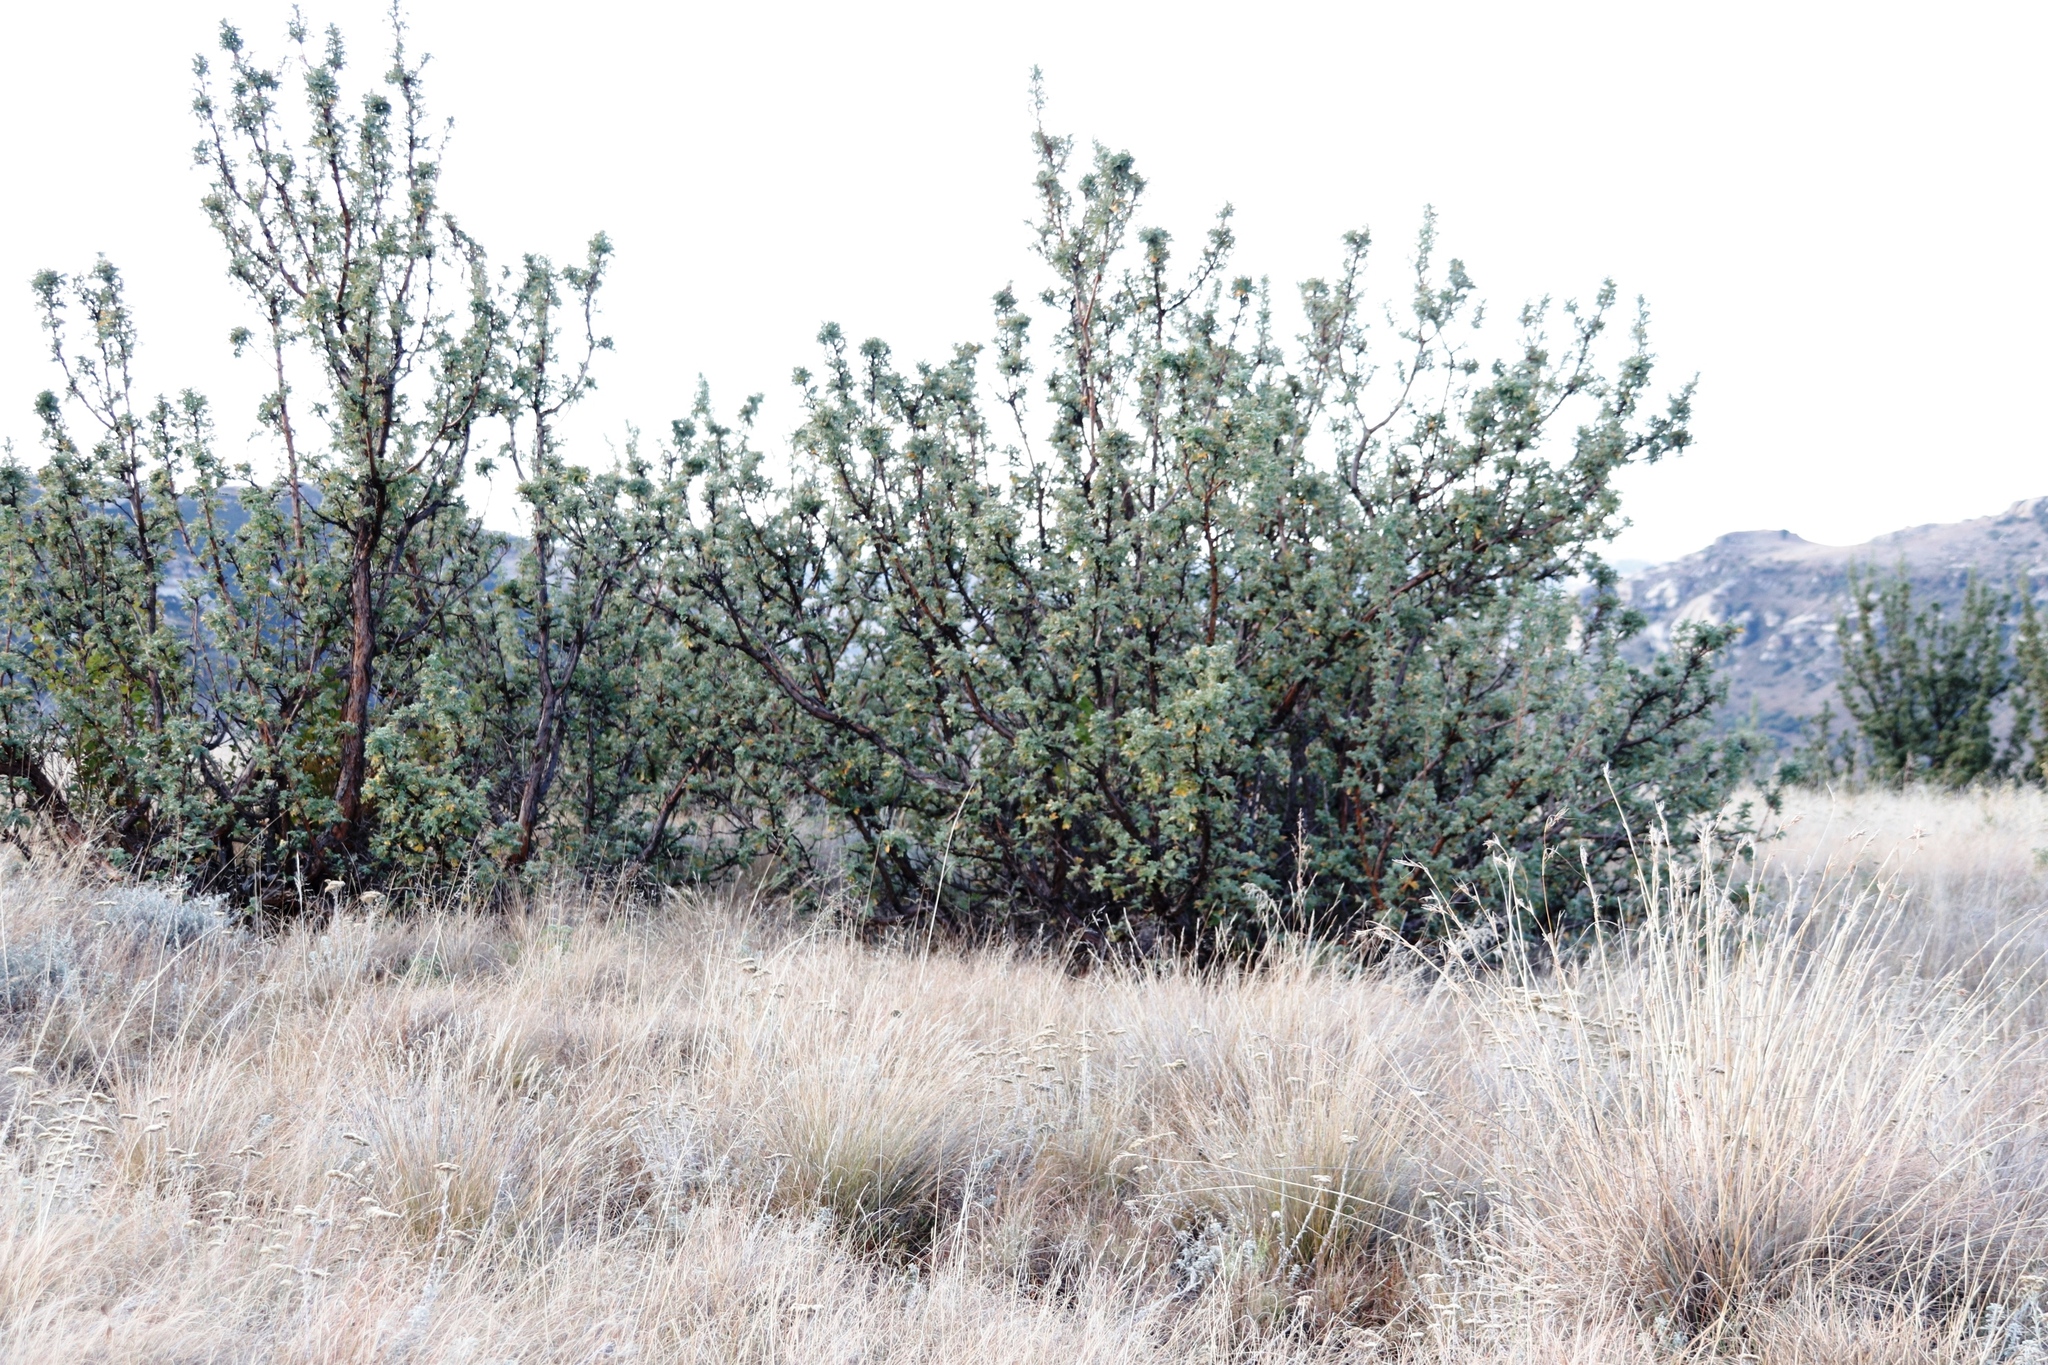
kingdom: Plantae
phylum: Tracheophyta
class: Magnoliopsida
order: Rosales
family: Rosaceae
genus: Leucosidea
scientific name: Leucosidea sericea
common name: Oldwood
